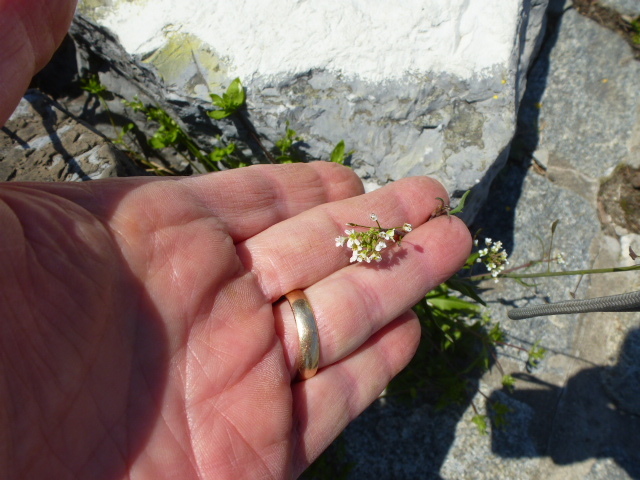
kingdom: Plantae
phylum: Tracheophyta
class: Magnoliopsida
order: Brassicales
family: Brassicaceae
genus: Capsella
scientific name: Capsella bursa-pastoris
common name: Shepherd's purse
